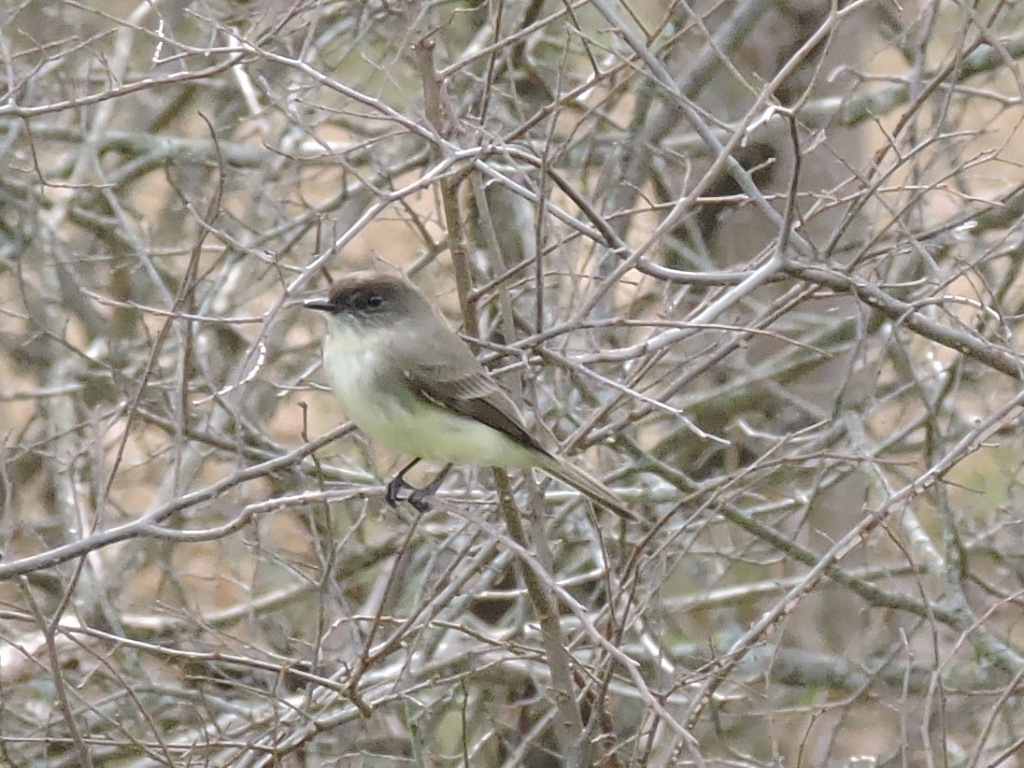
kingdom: Animalia
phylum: Chordata
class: Aves
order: Passeriformes
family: Tyrannidae
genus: Sayornis
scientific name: Sayornis phoebe
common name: Eastern phoebe
